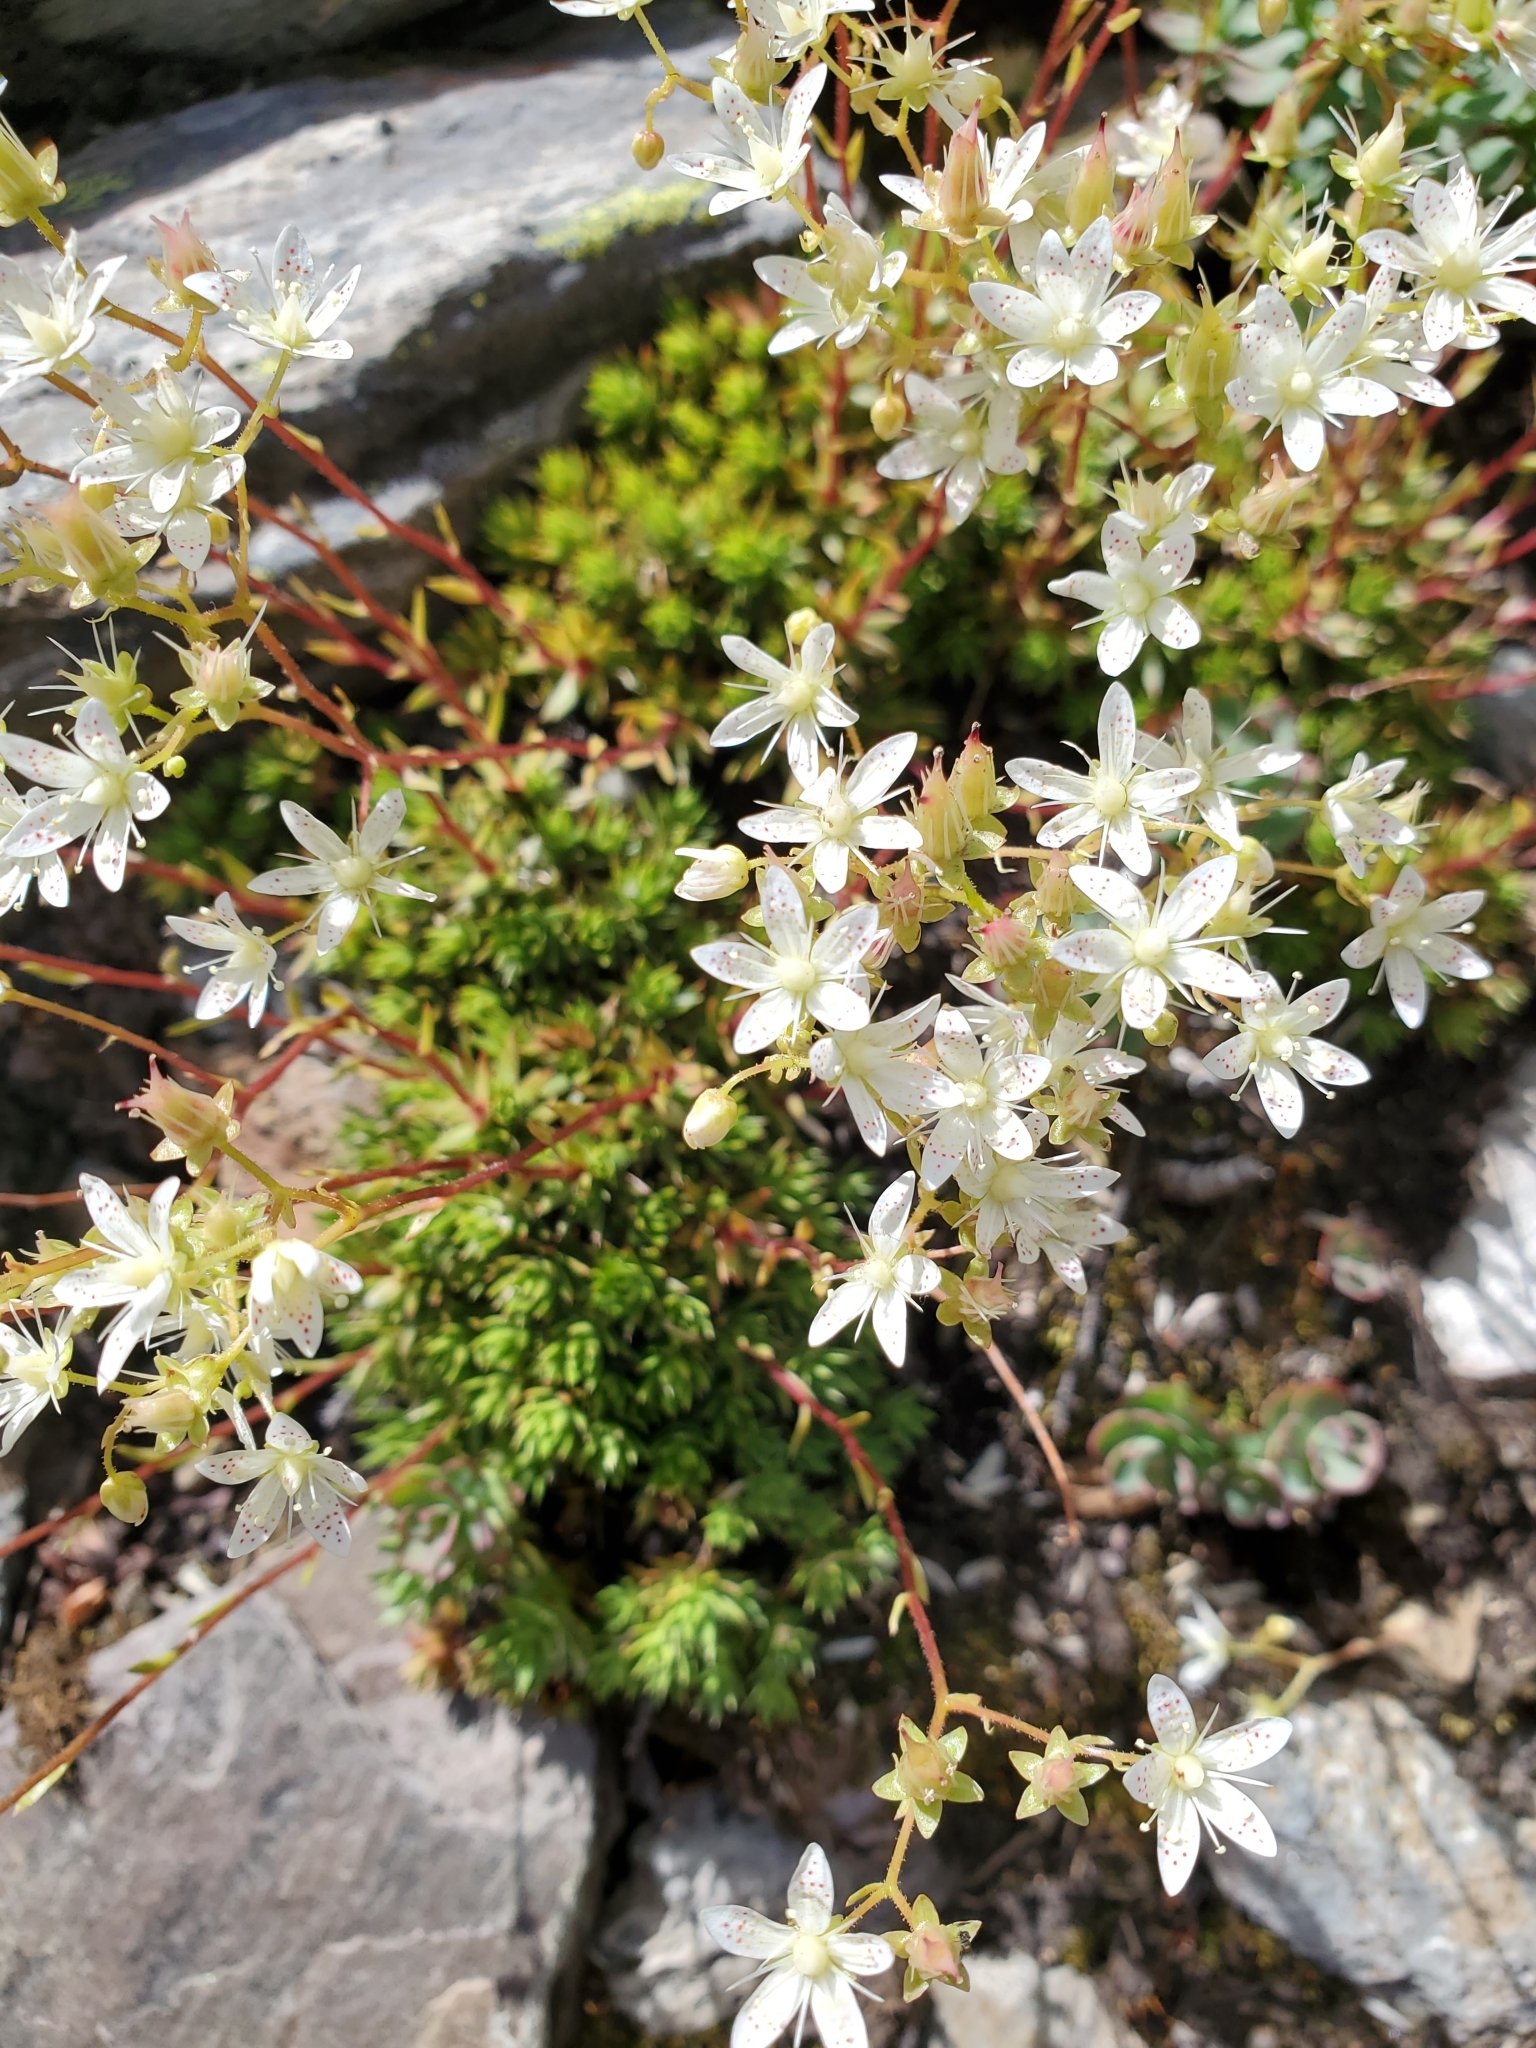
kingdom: Plantae
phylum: Tracheophyta
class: Magnoliopsida
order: Saxifragales
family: Saxifragaceae
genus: Saxifraga
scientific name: Saxifraga bronchialis
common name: Matted saxifrage
